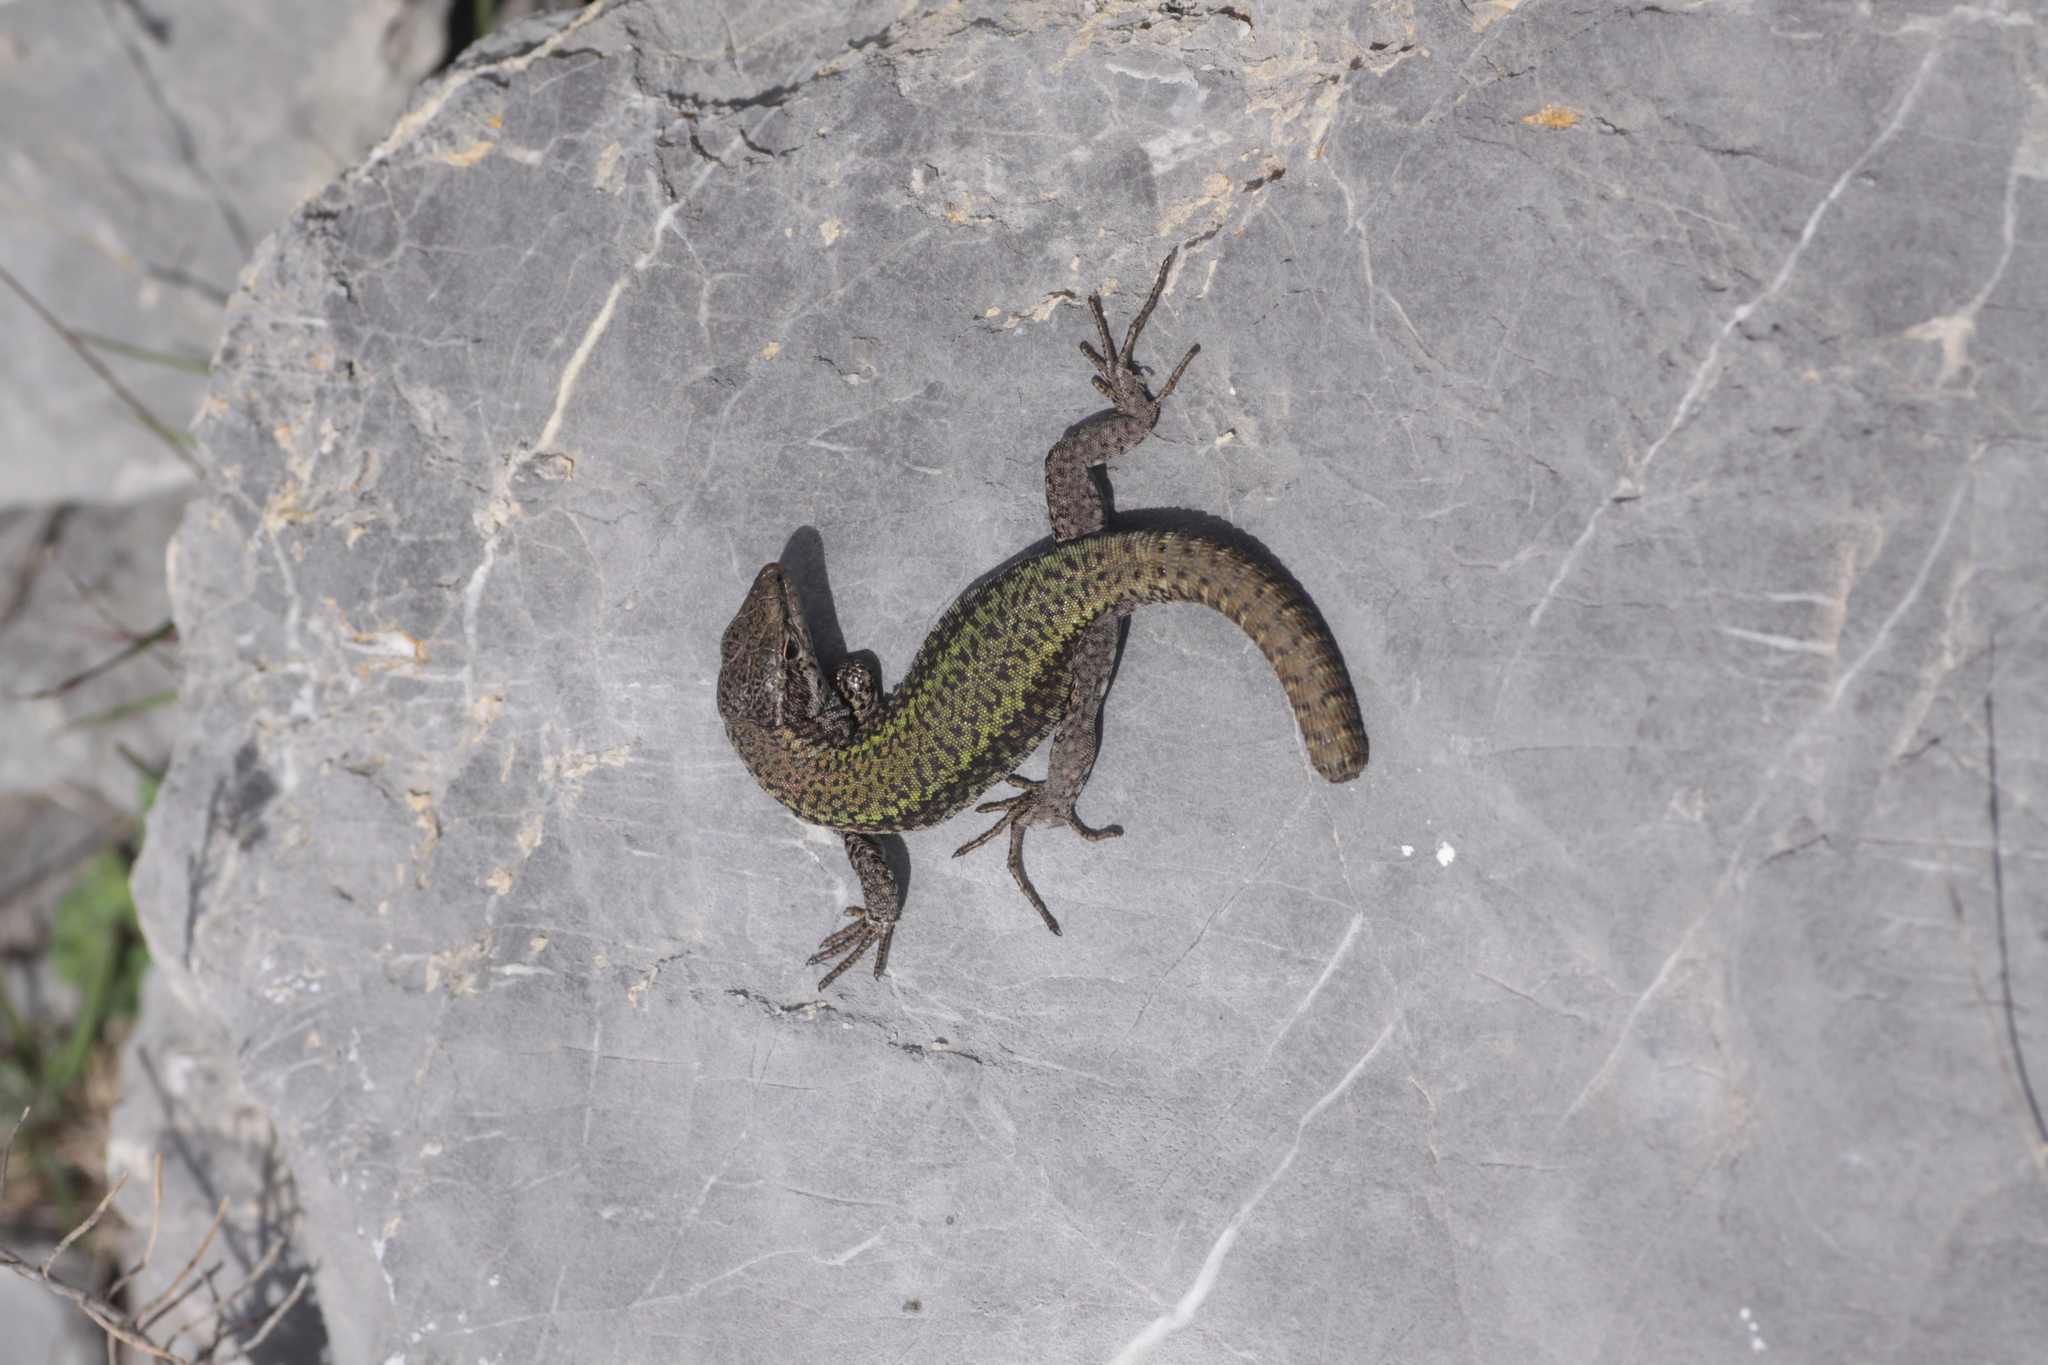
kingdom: Animalia
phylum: Chordata
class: Squamata
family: Lacertidae
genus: Podarcis
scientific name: Podarcis vaucheri
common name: Vaucher's wall lizard
